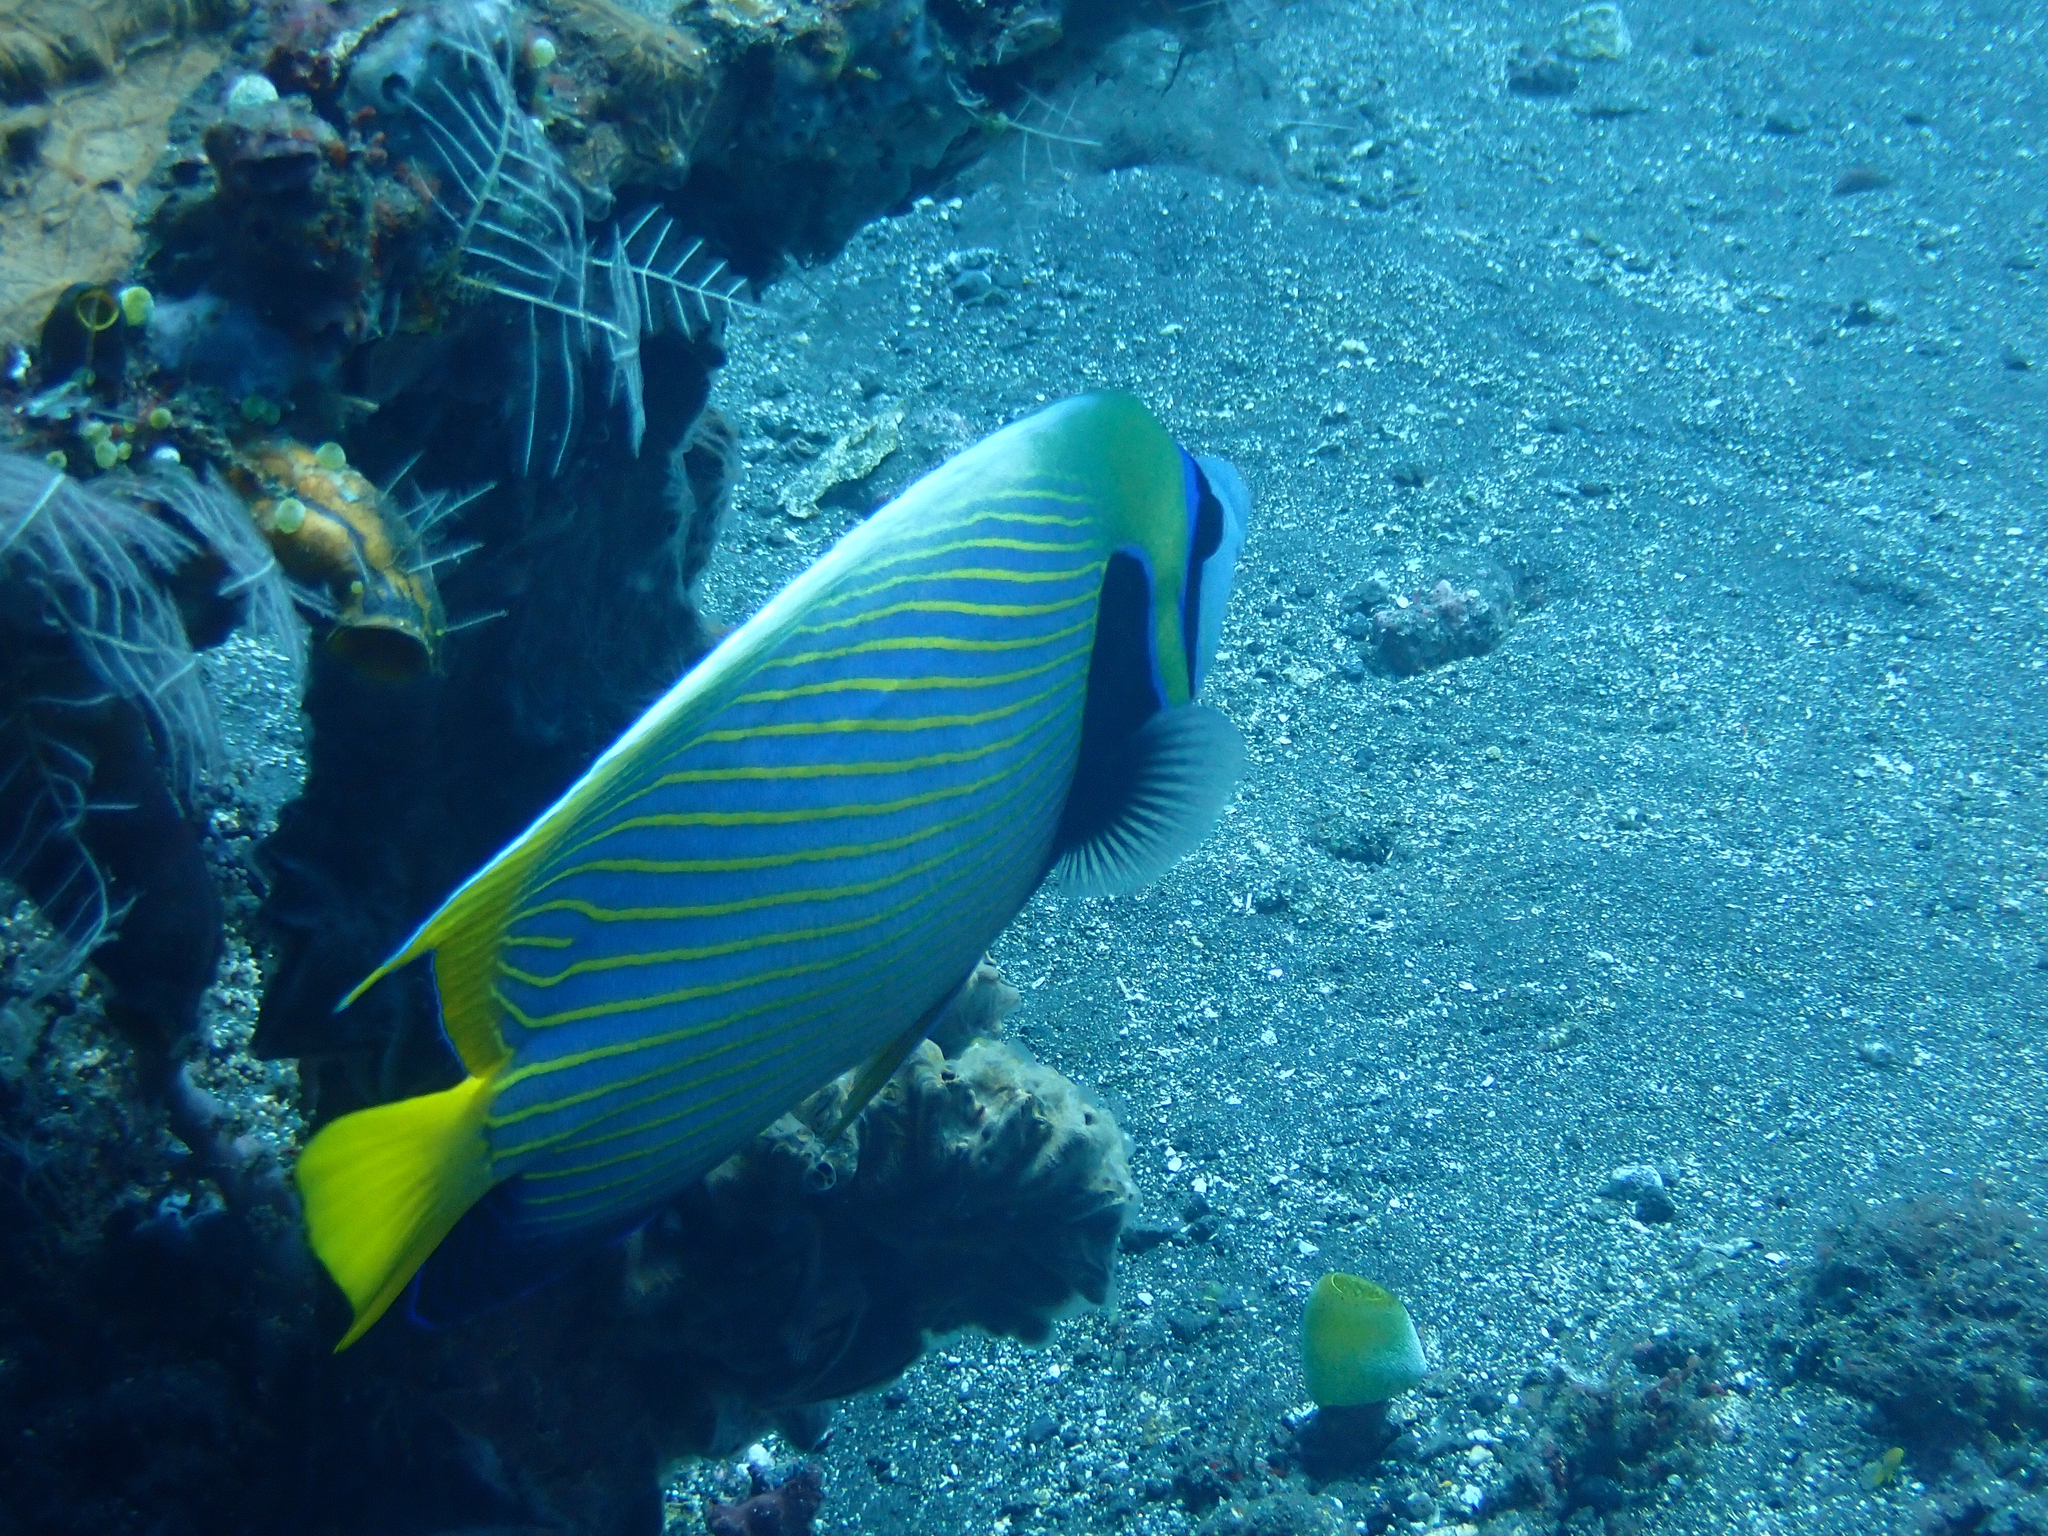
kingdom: Animalia
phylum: Chordata
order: Perciformes
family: Pomacanthidae
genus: Pomacanthus
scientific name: Pomacanthus imperator
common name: Emperor angelfish
